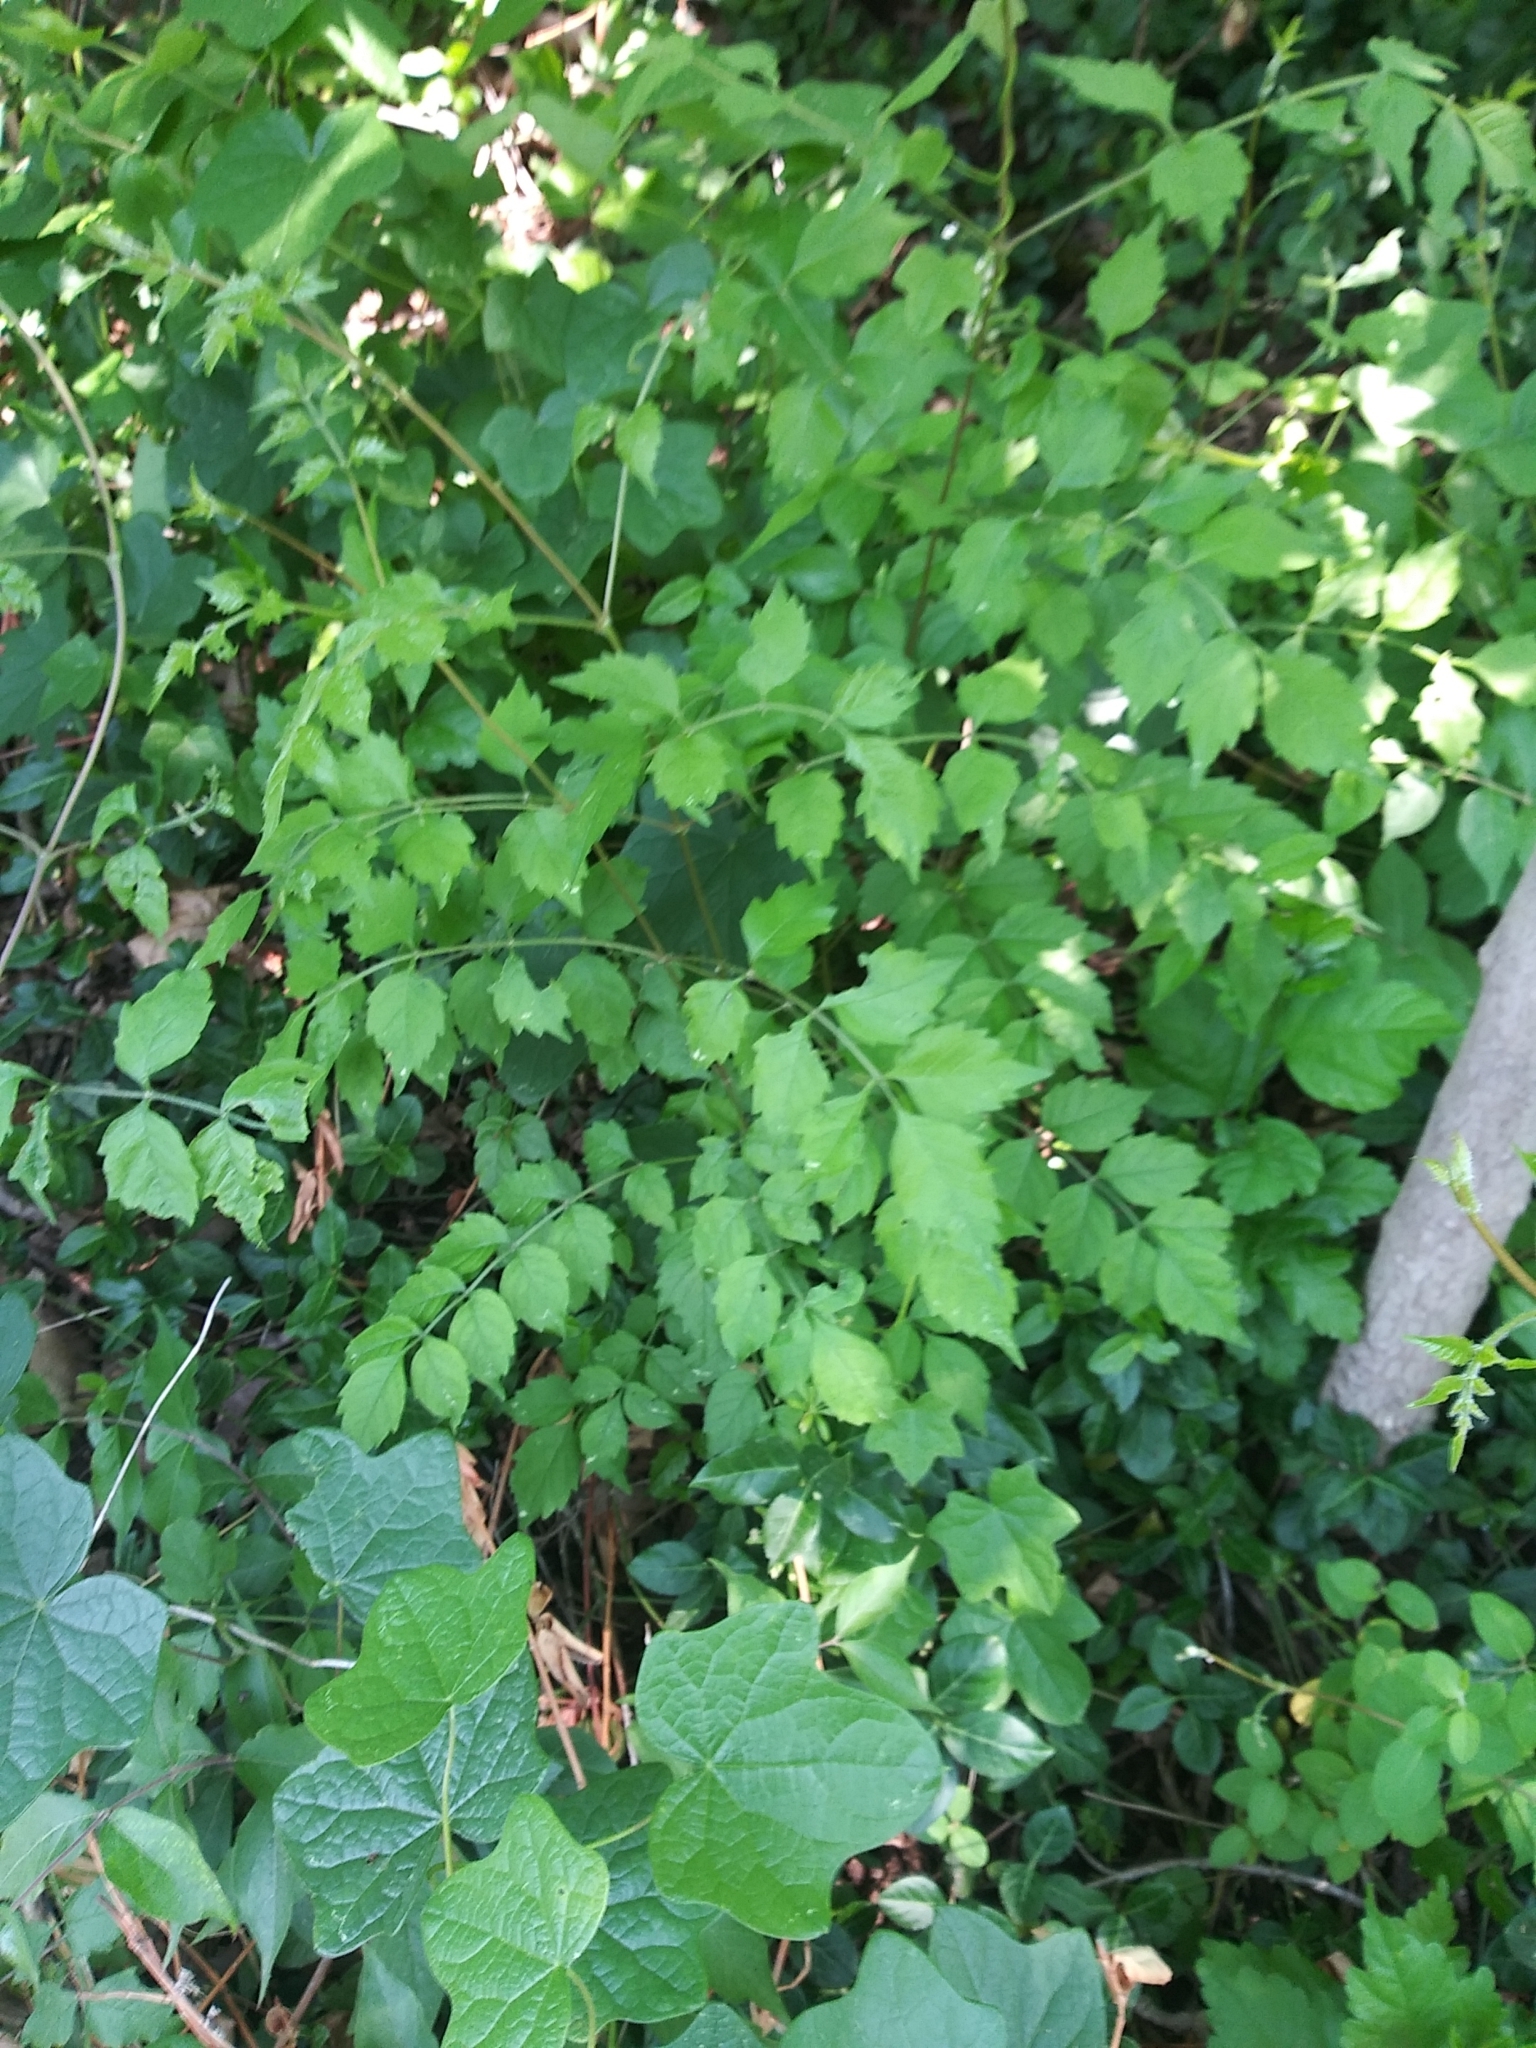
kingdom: Plantae
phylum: Tracheophyta
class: Magnoliopsida
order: Lamiales
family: Bignoniaceae
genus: Campsis
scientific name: Campsis radicans
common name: Trumpet-creeper
